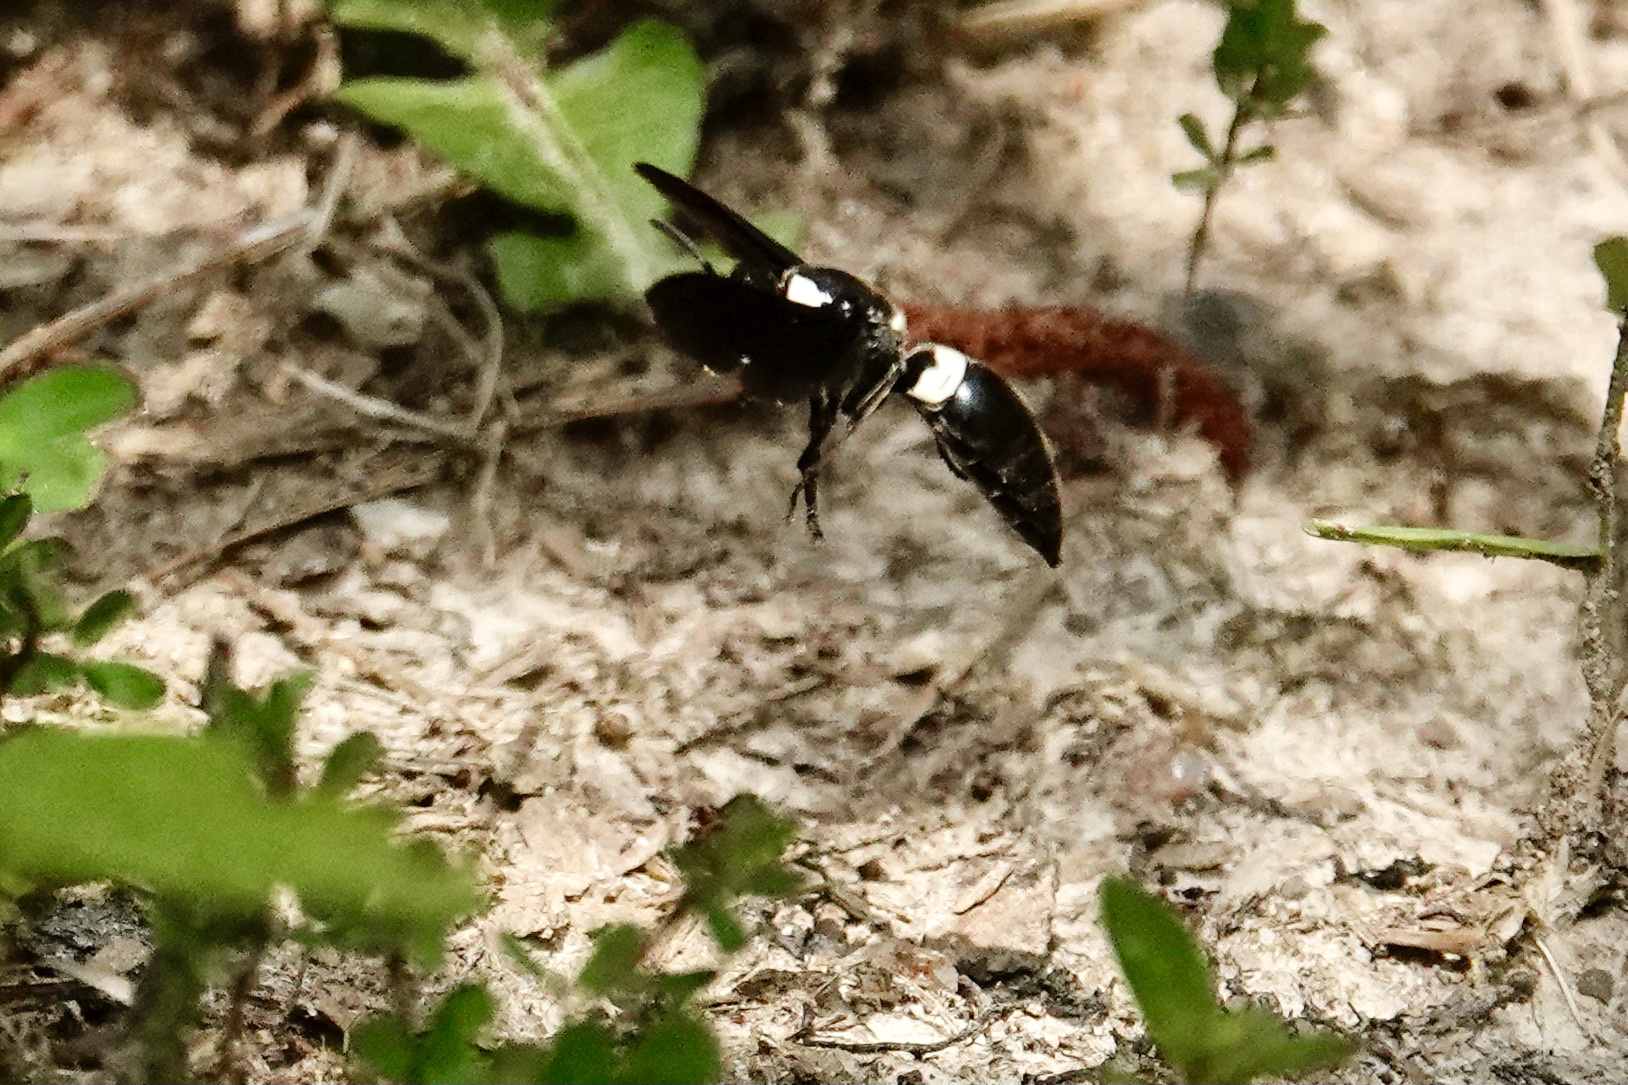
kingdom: Animalia
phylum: Arthropoda
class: Insecta
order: Hymenoptera
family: Eumenidae
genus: Monobia
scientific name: Monobia quadridens
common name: Four-toothed mason wasp
